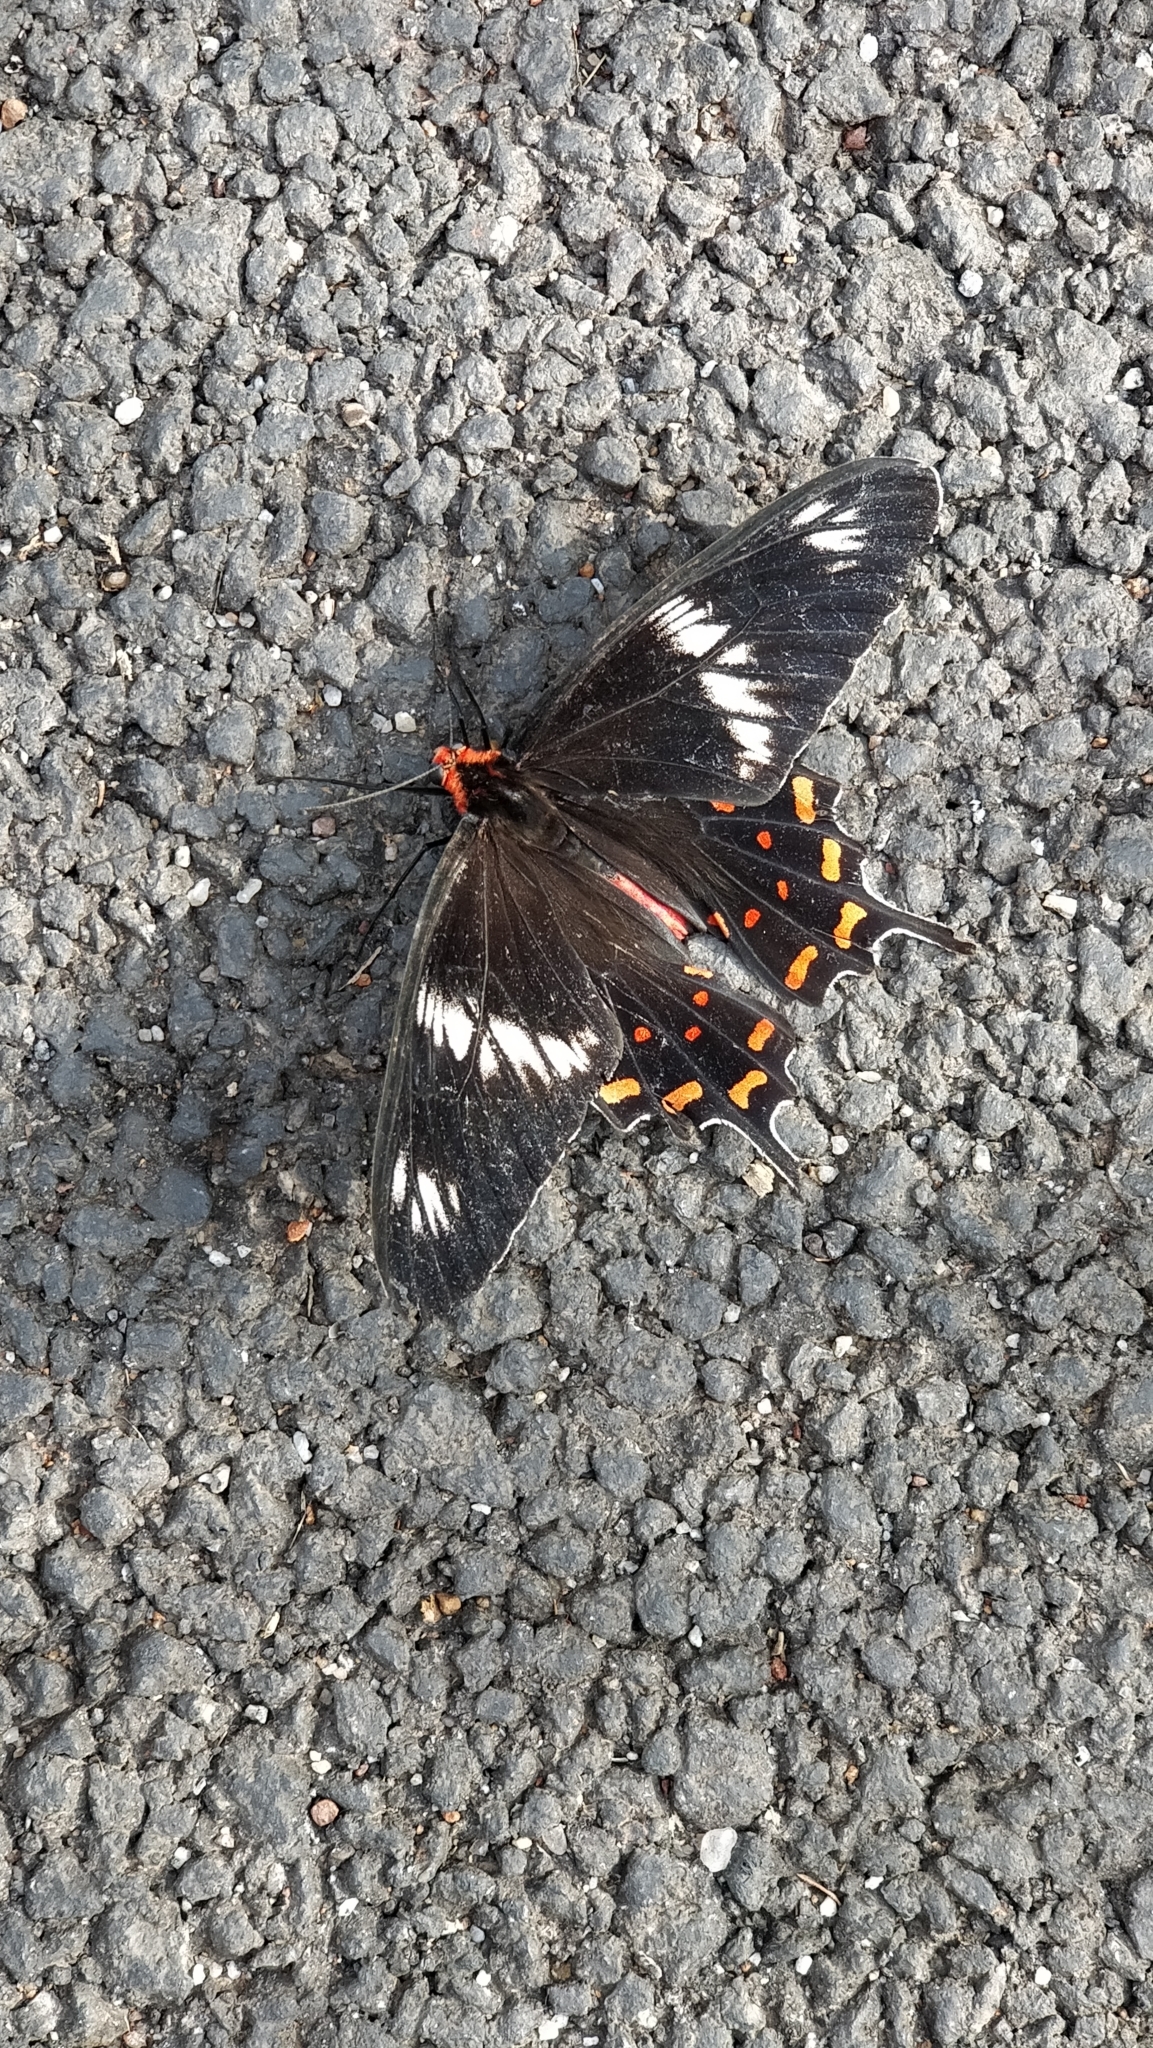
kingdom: Animalia
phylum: Arthropoda
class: Insecta
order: Lepidoptera
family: Papilionidae
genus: Pachliopta
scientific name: Pachliopta hector
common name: Crimson rose
